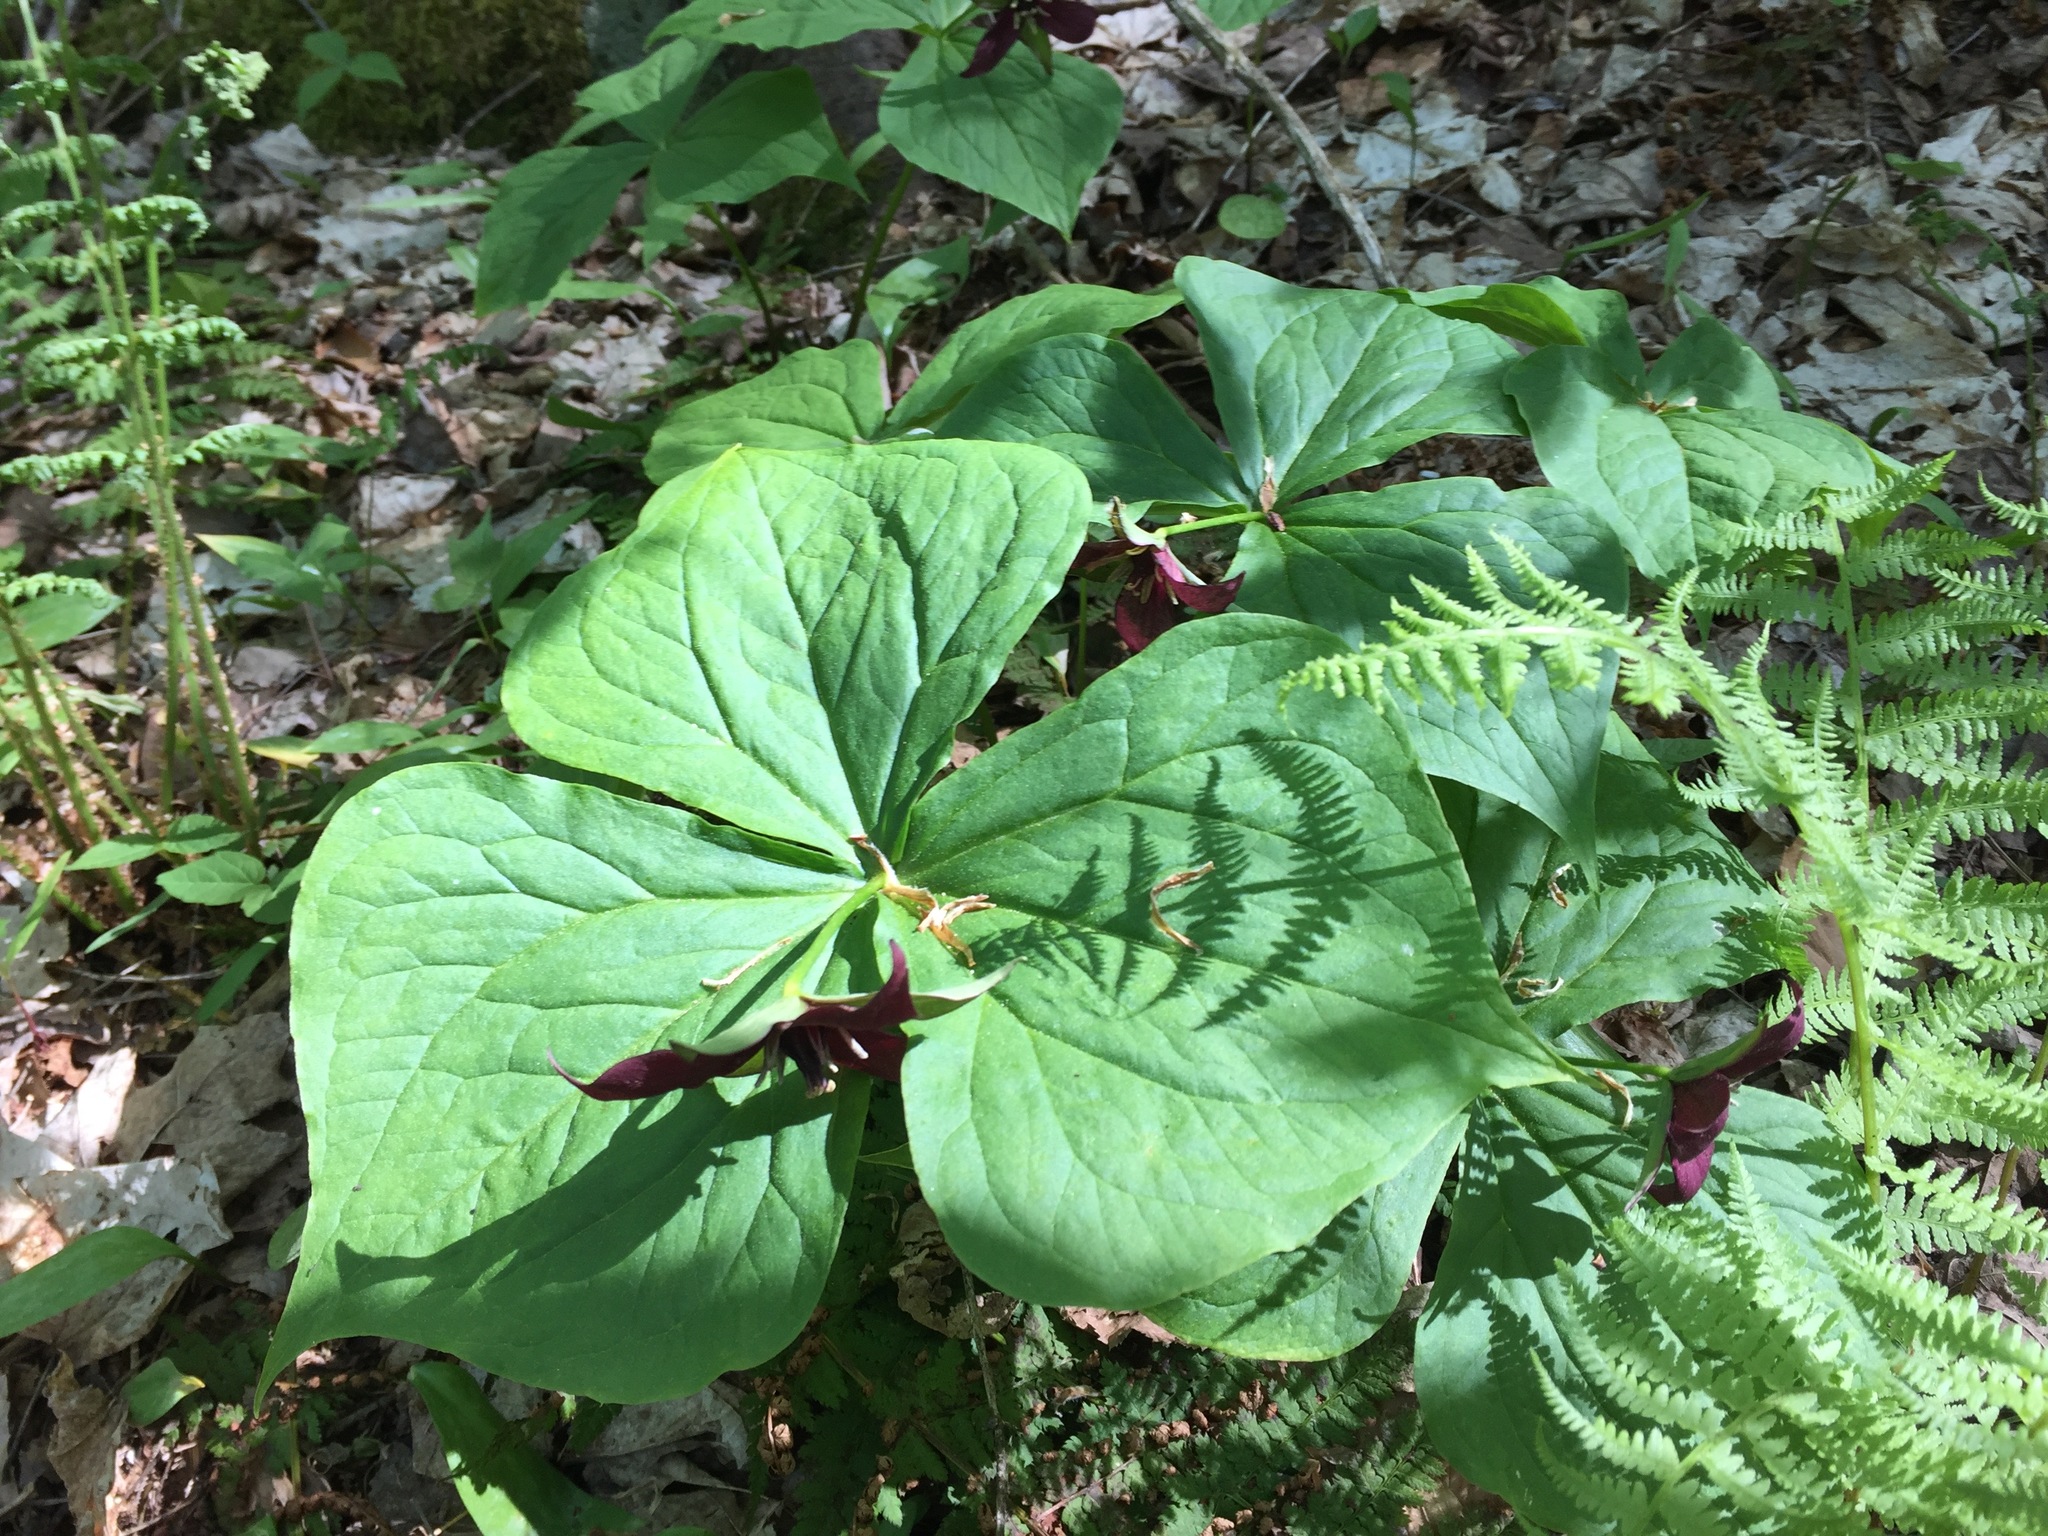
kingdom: Plantae
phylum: Tracheophyta
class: Liliopsida
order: Liliales
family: Melanthiaceae
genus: Trillium
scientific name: Trillium erectum
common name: Purple trillium
